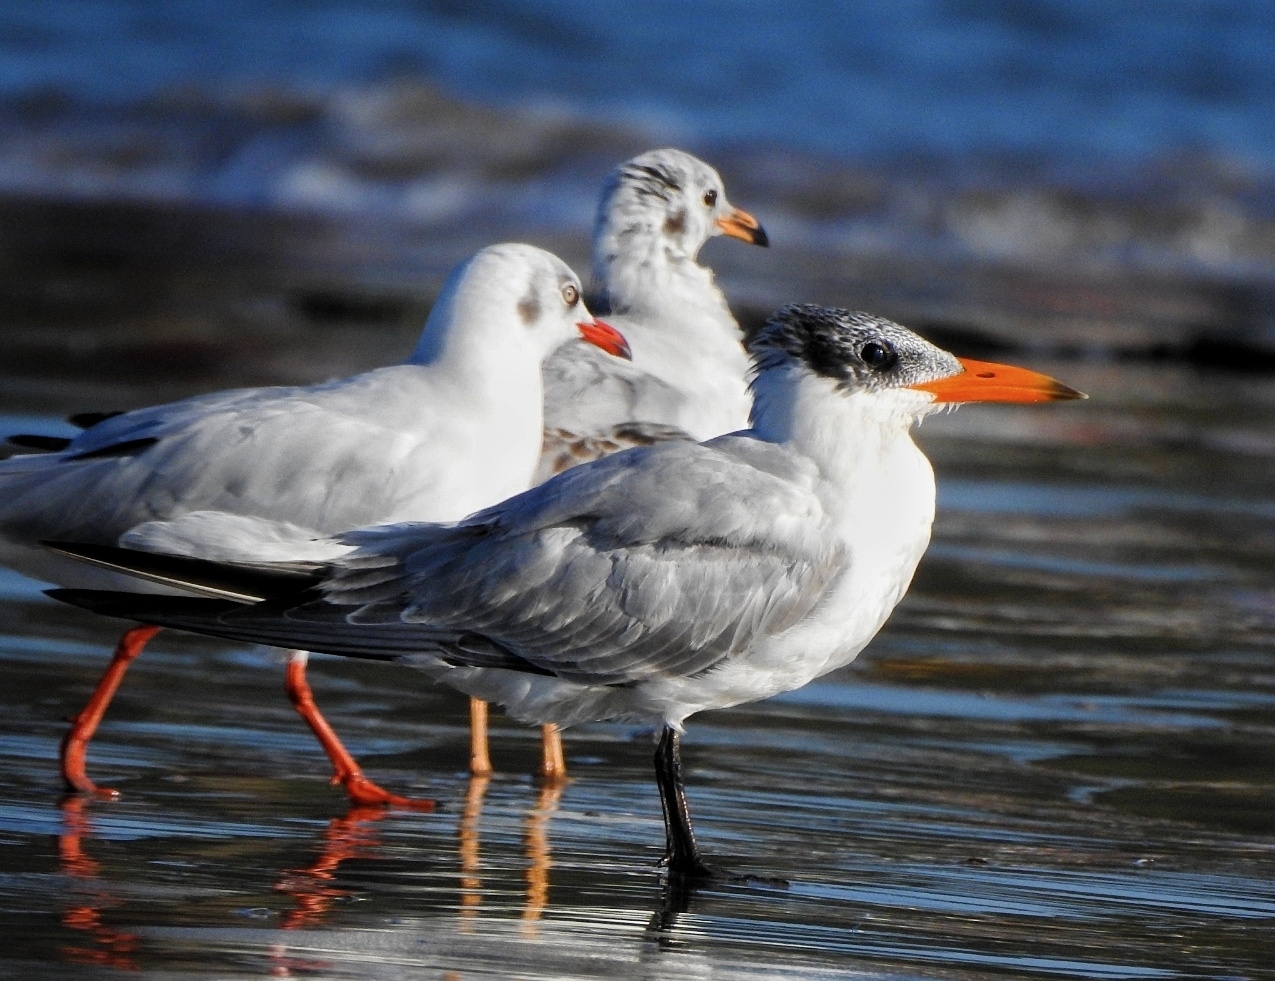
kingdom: Animalia
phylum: Chordata
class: Aves
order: Charadriiformes
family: Laridae
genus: Hydroprogne
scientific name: Hydroprogne caspia
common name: Caspian tern
